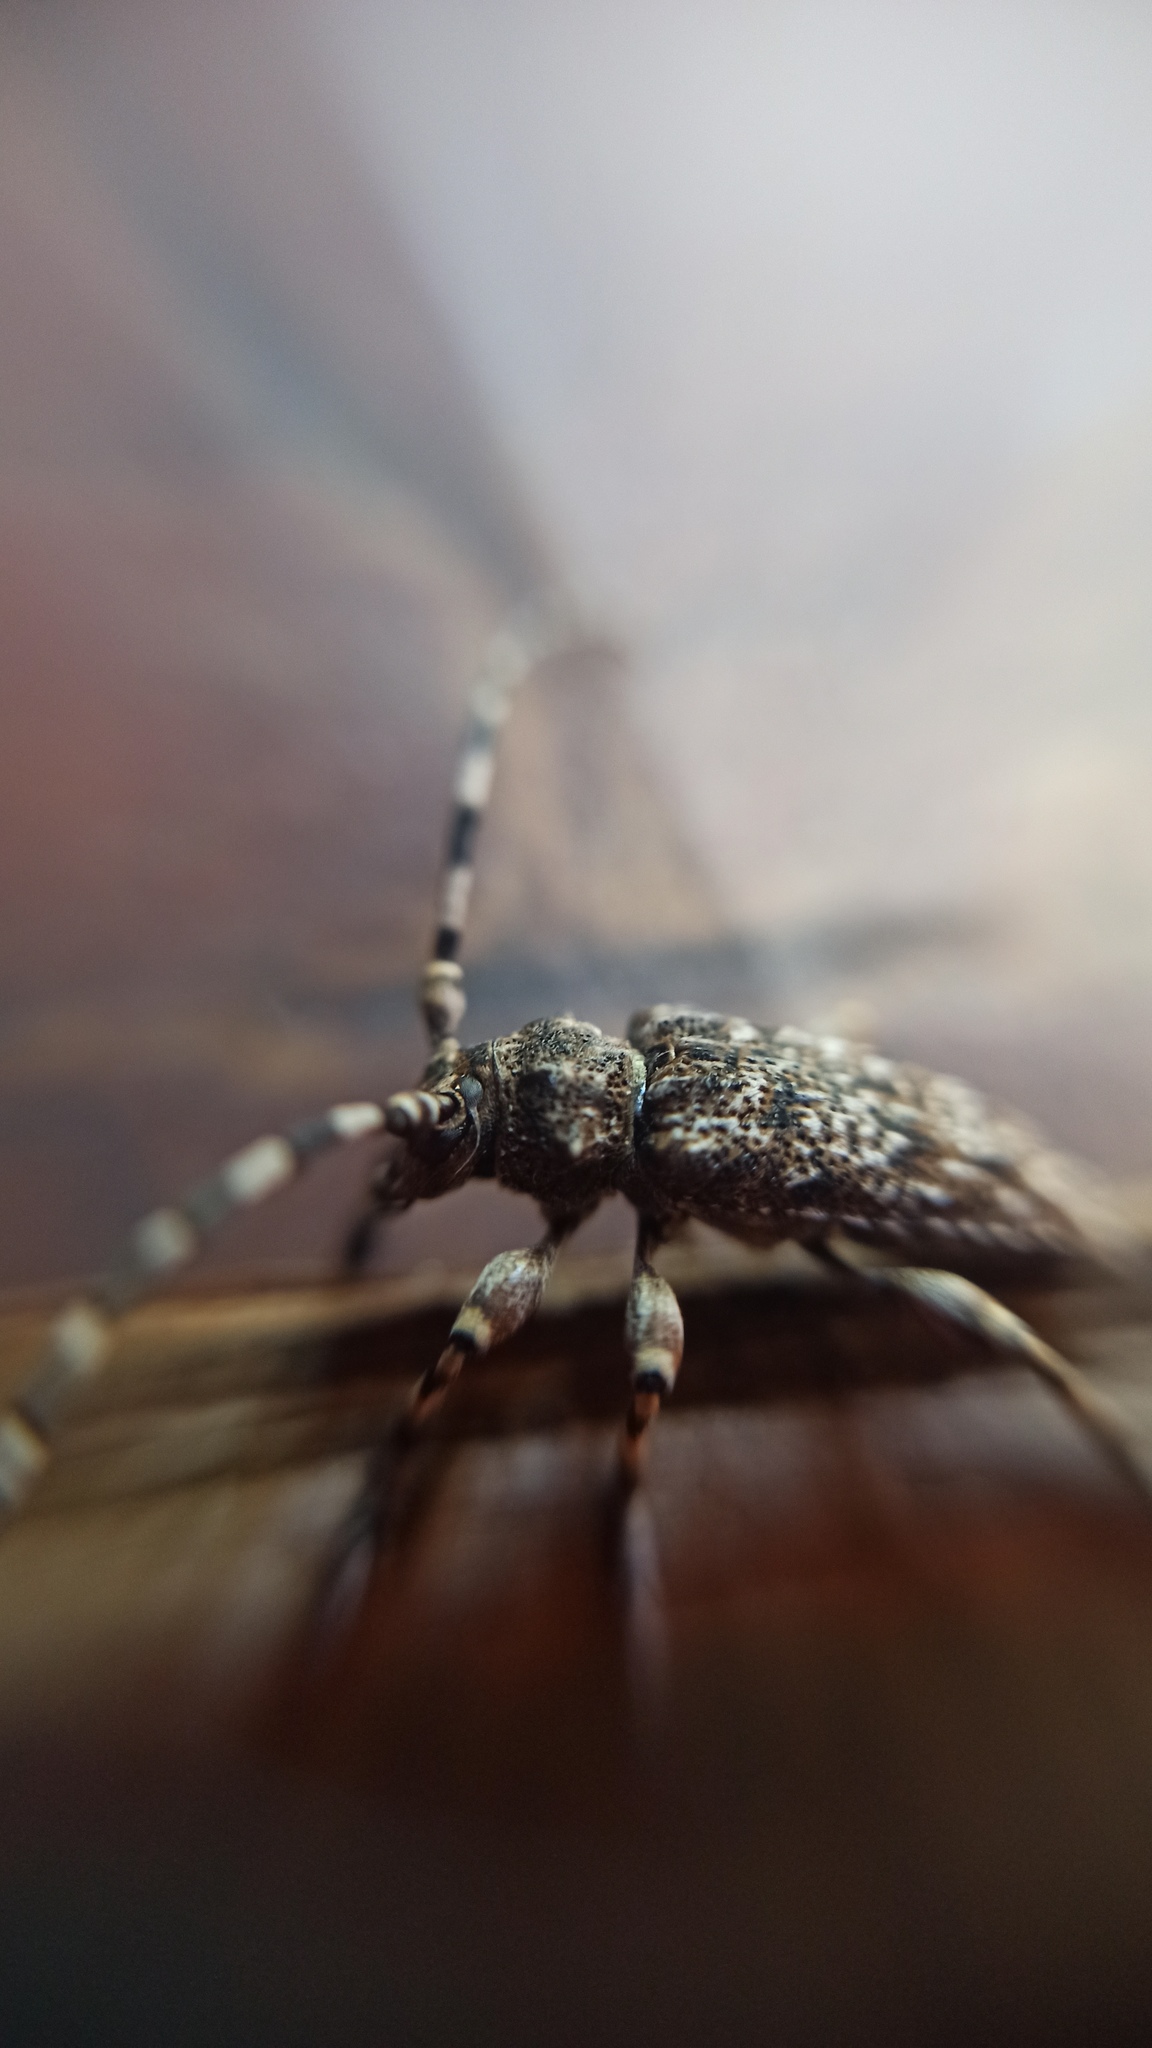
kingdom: Animalia
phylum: Arthropoda
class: Insecta
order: Coleoptera
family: Cerambycidae
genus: Aegomorphus
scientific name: Aegomorphus clavipes
